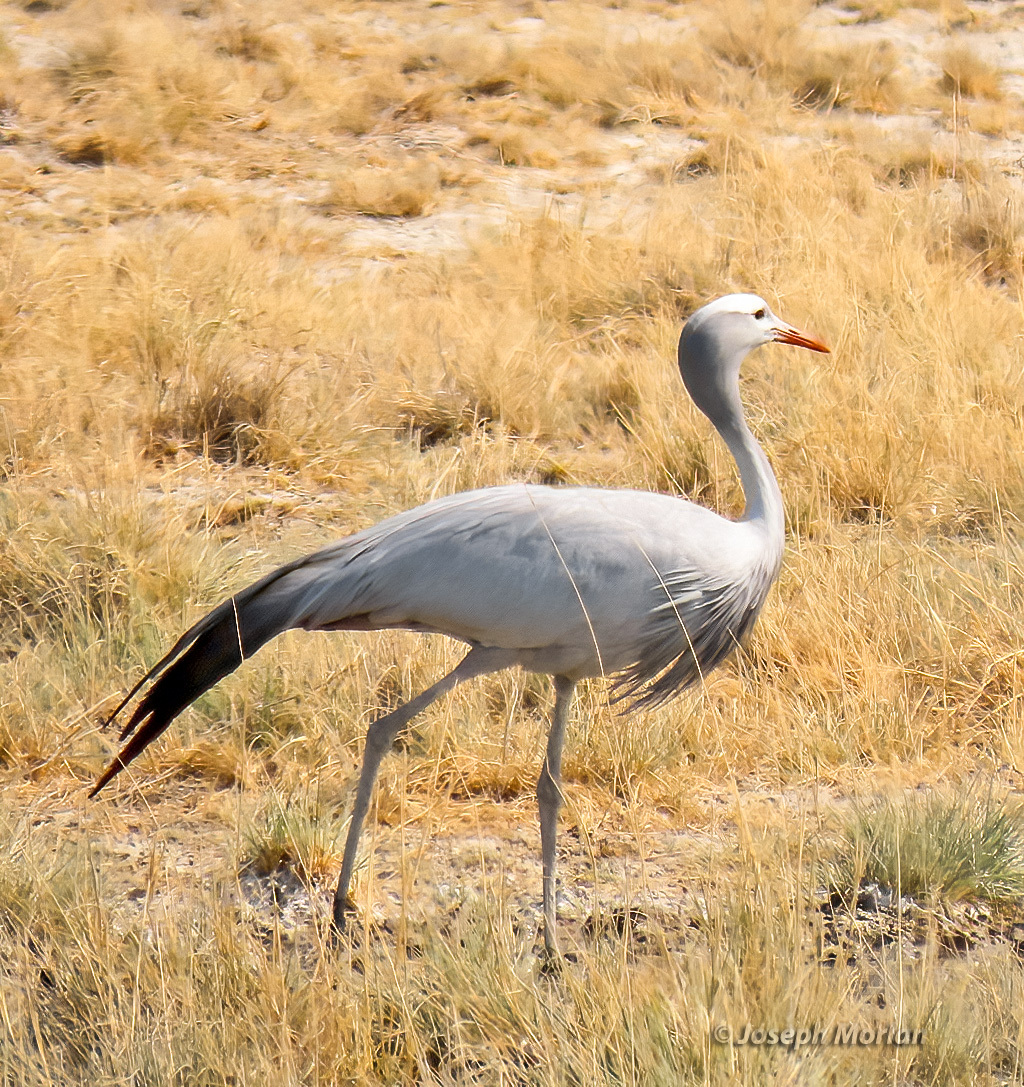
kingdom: Animalia
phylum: Chordata
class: Aves
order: Gruiformes
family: Gruidae
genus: Anthropoides
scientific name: Anthropoides paradiseus
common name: Blue crane
